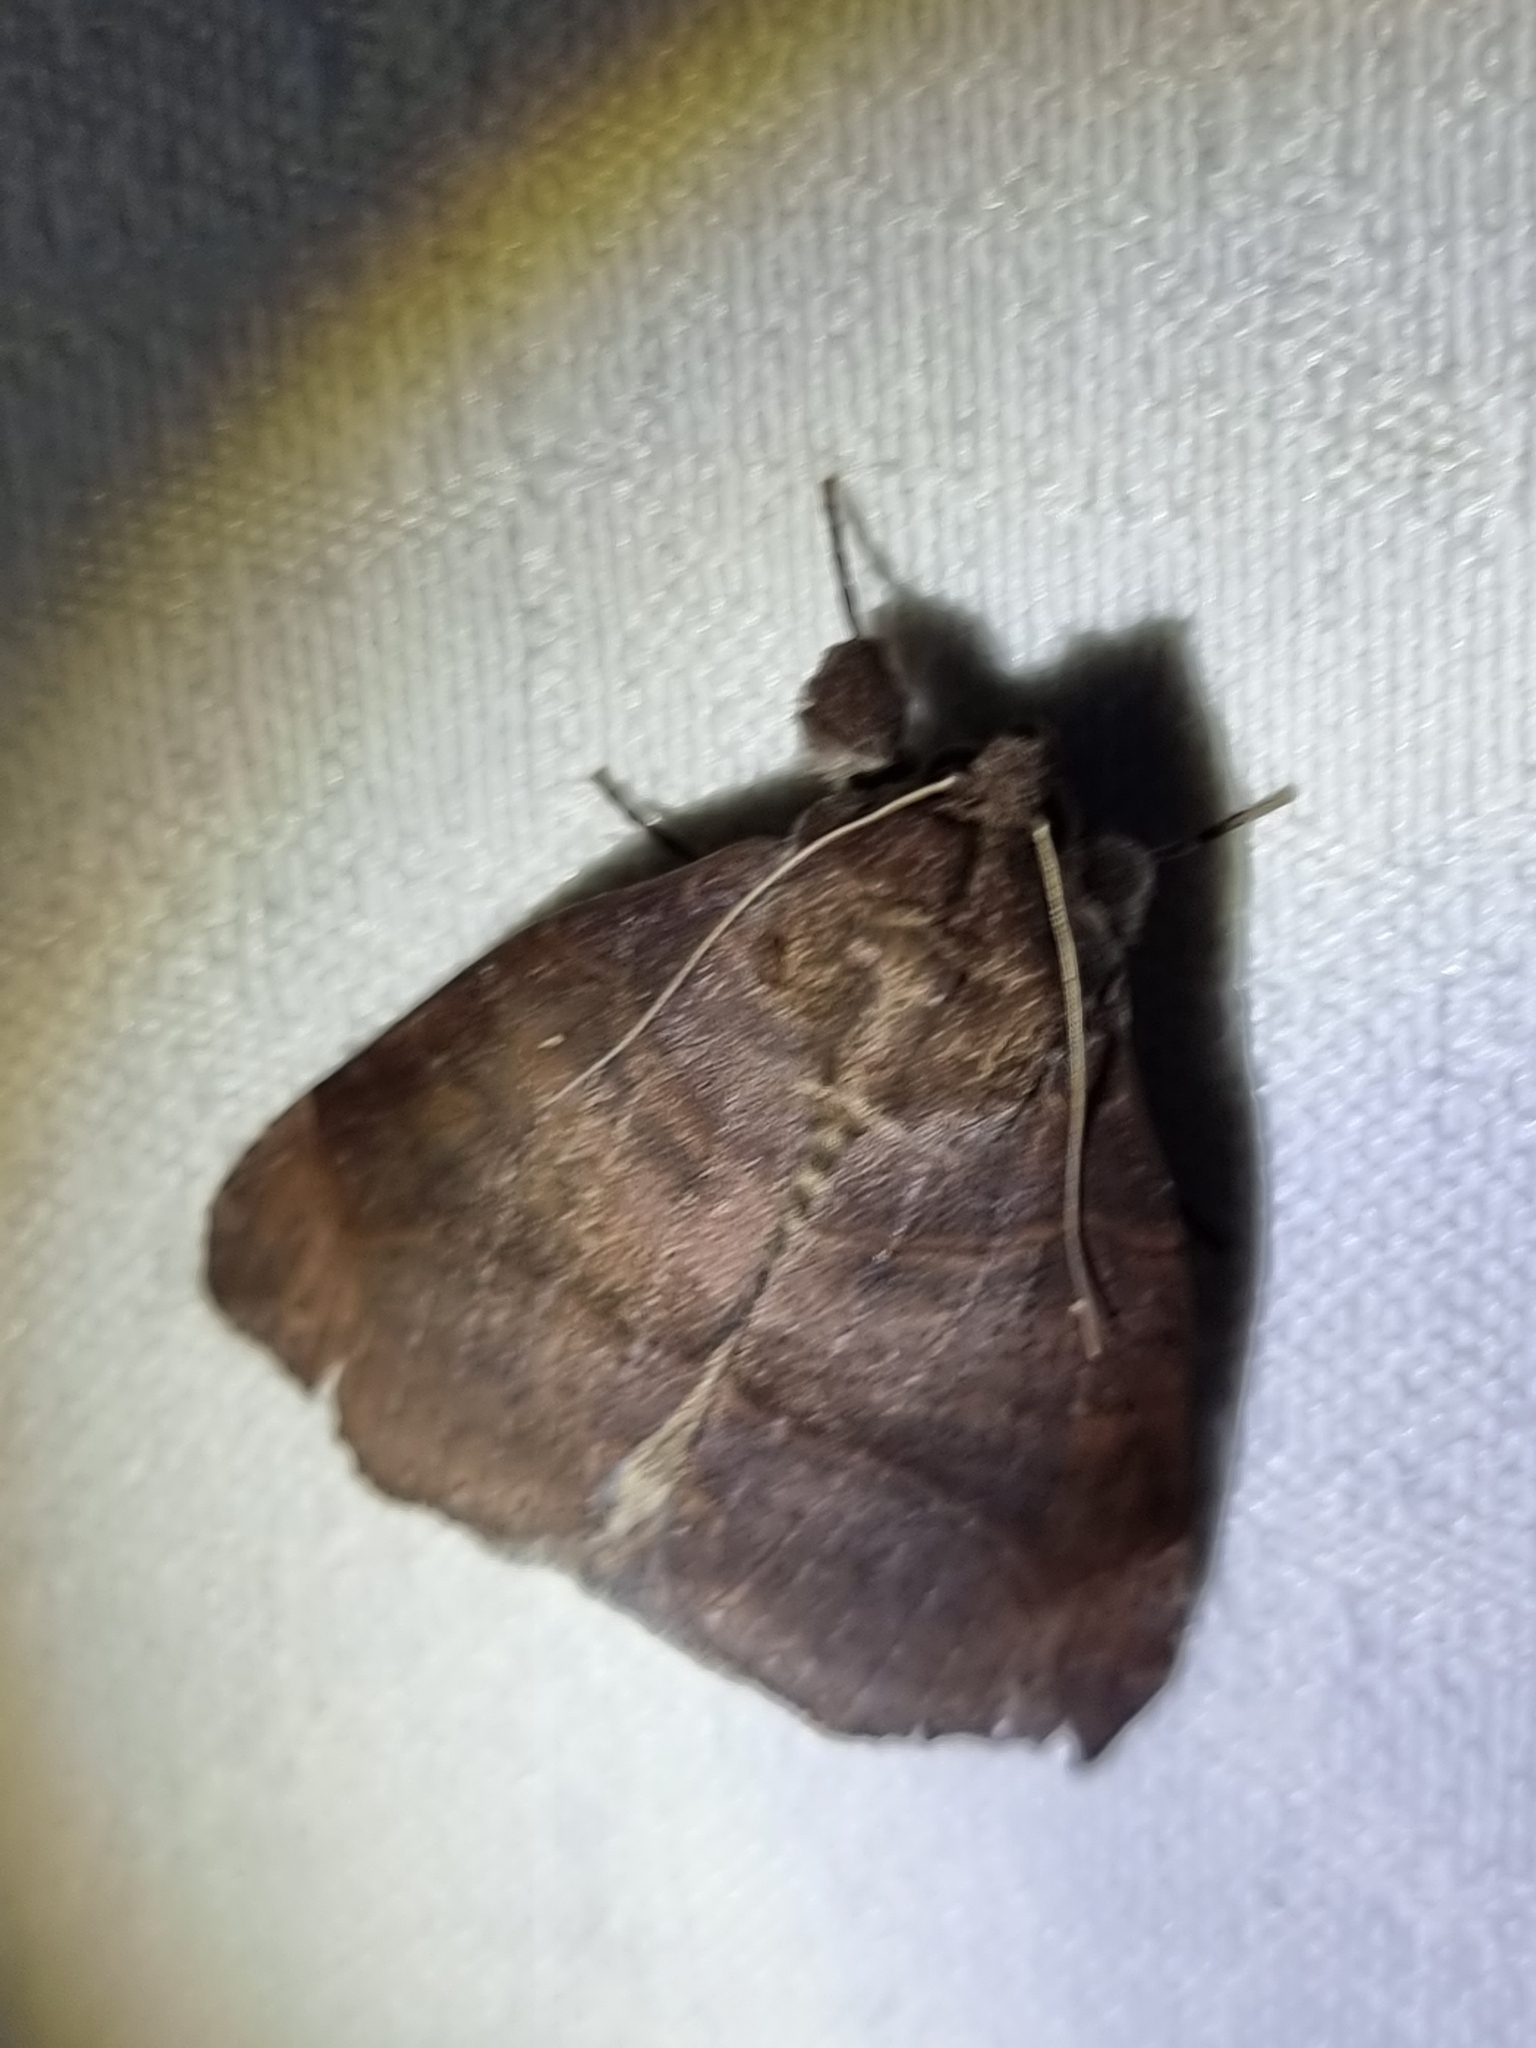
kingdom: Animalia
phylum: Arthropoda
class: Insecta
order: Lepidoptera
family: Erebidae
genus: Dysgonia
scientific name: Dysgonia hamatilis
